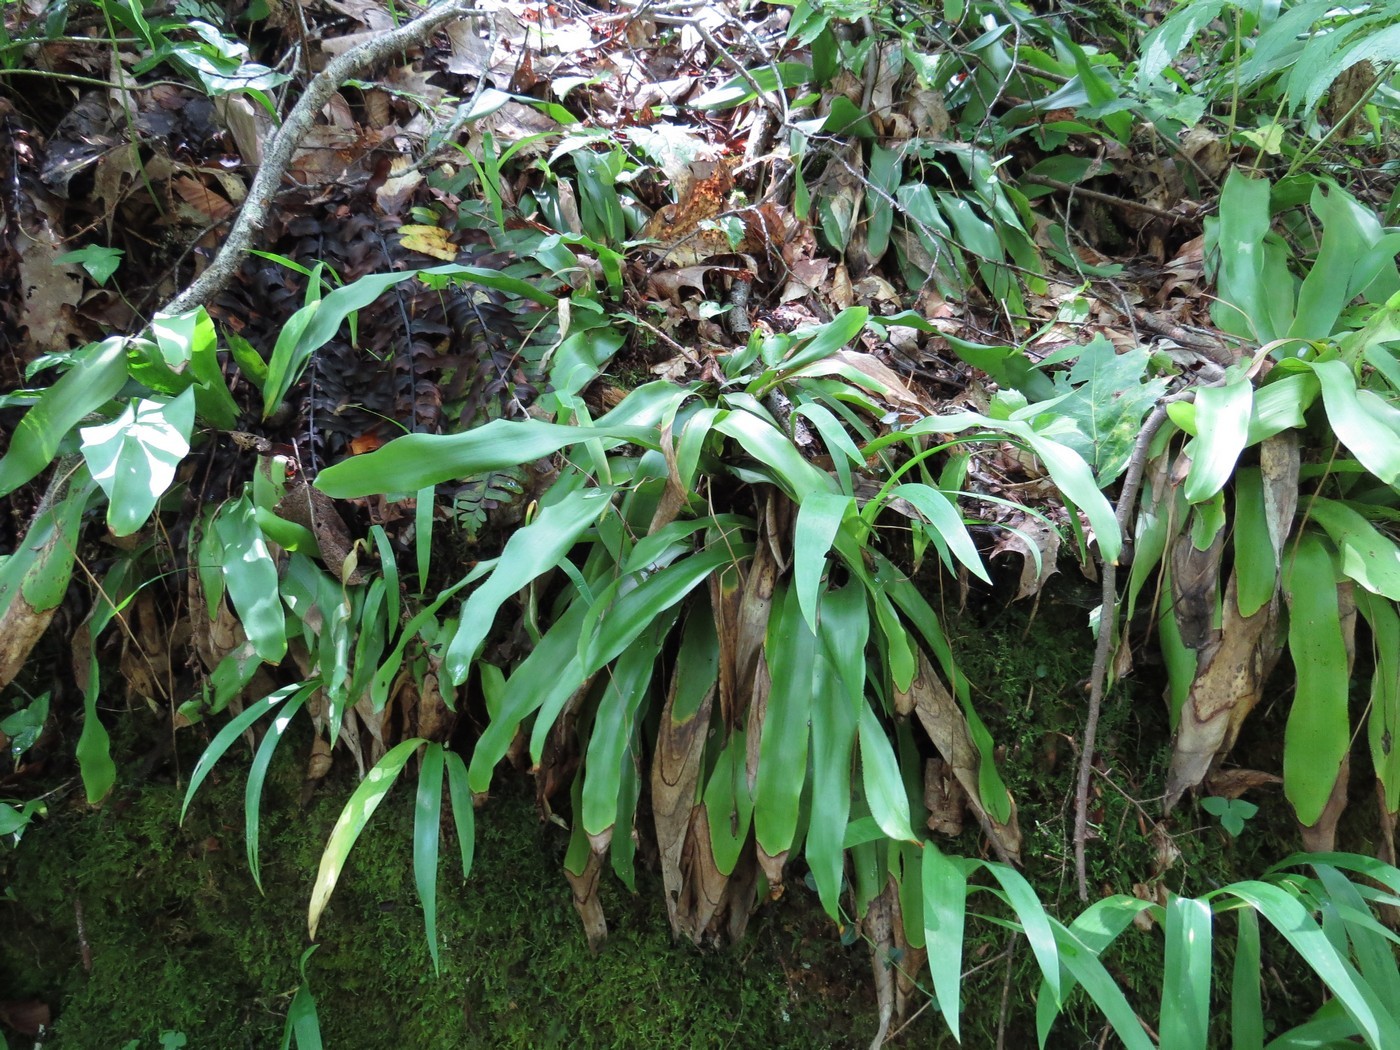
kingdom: Plantae
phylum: Tracheophyta
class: Liliopsida
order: Poales
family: Cyperaceae
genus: Carex
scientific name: Carex fraseriana
